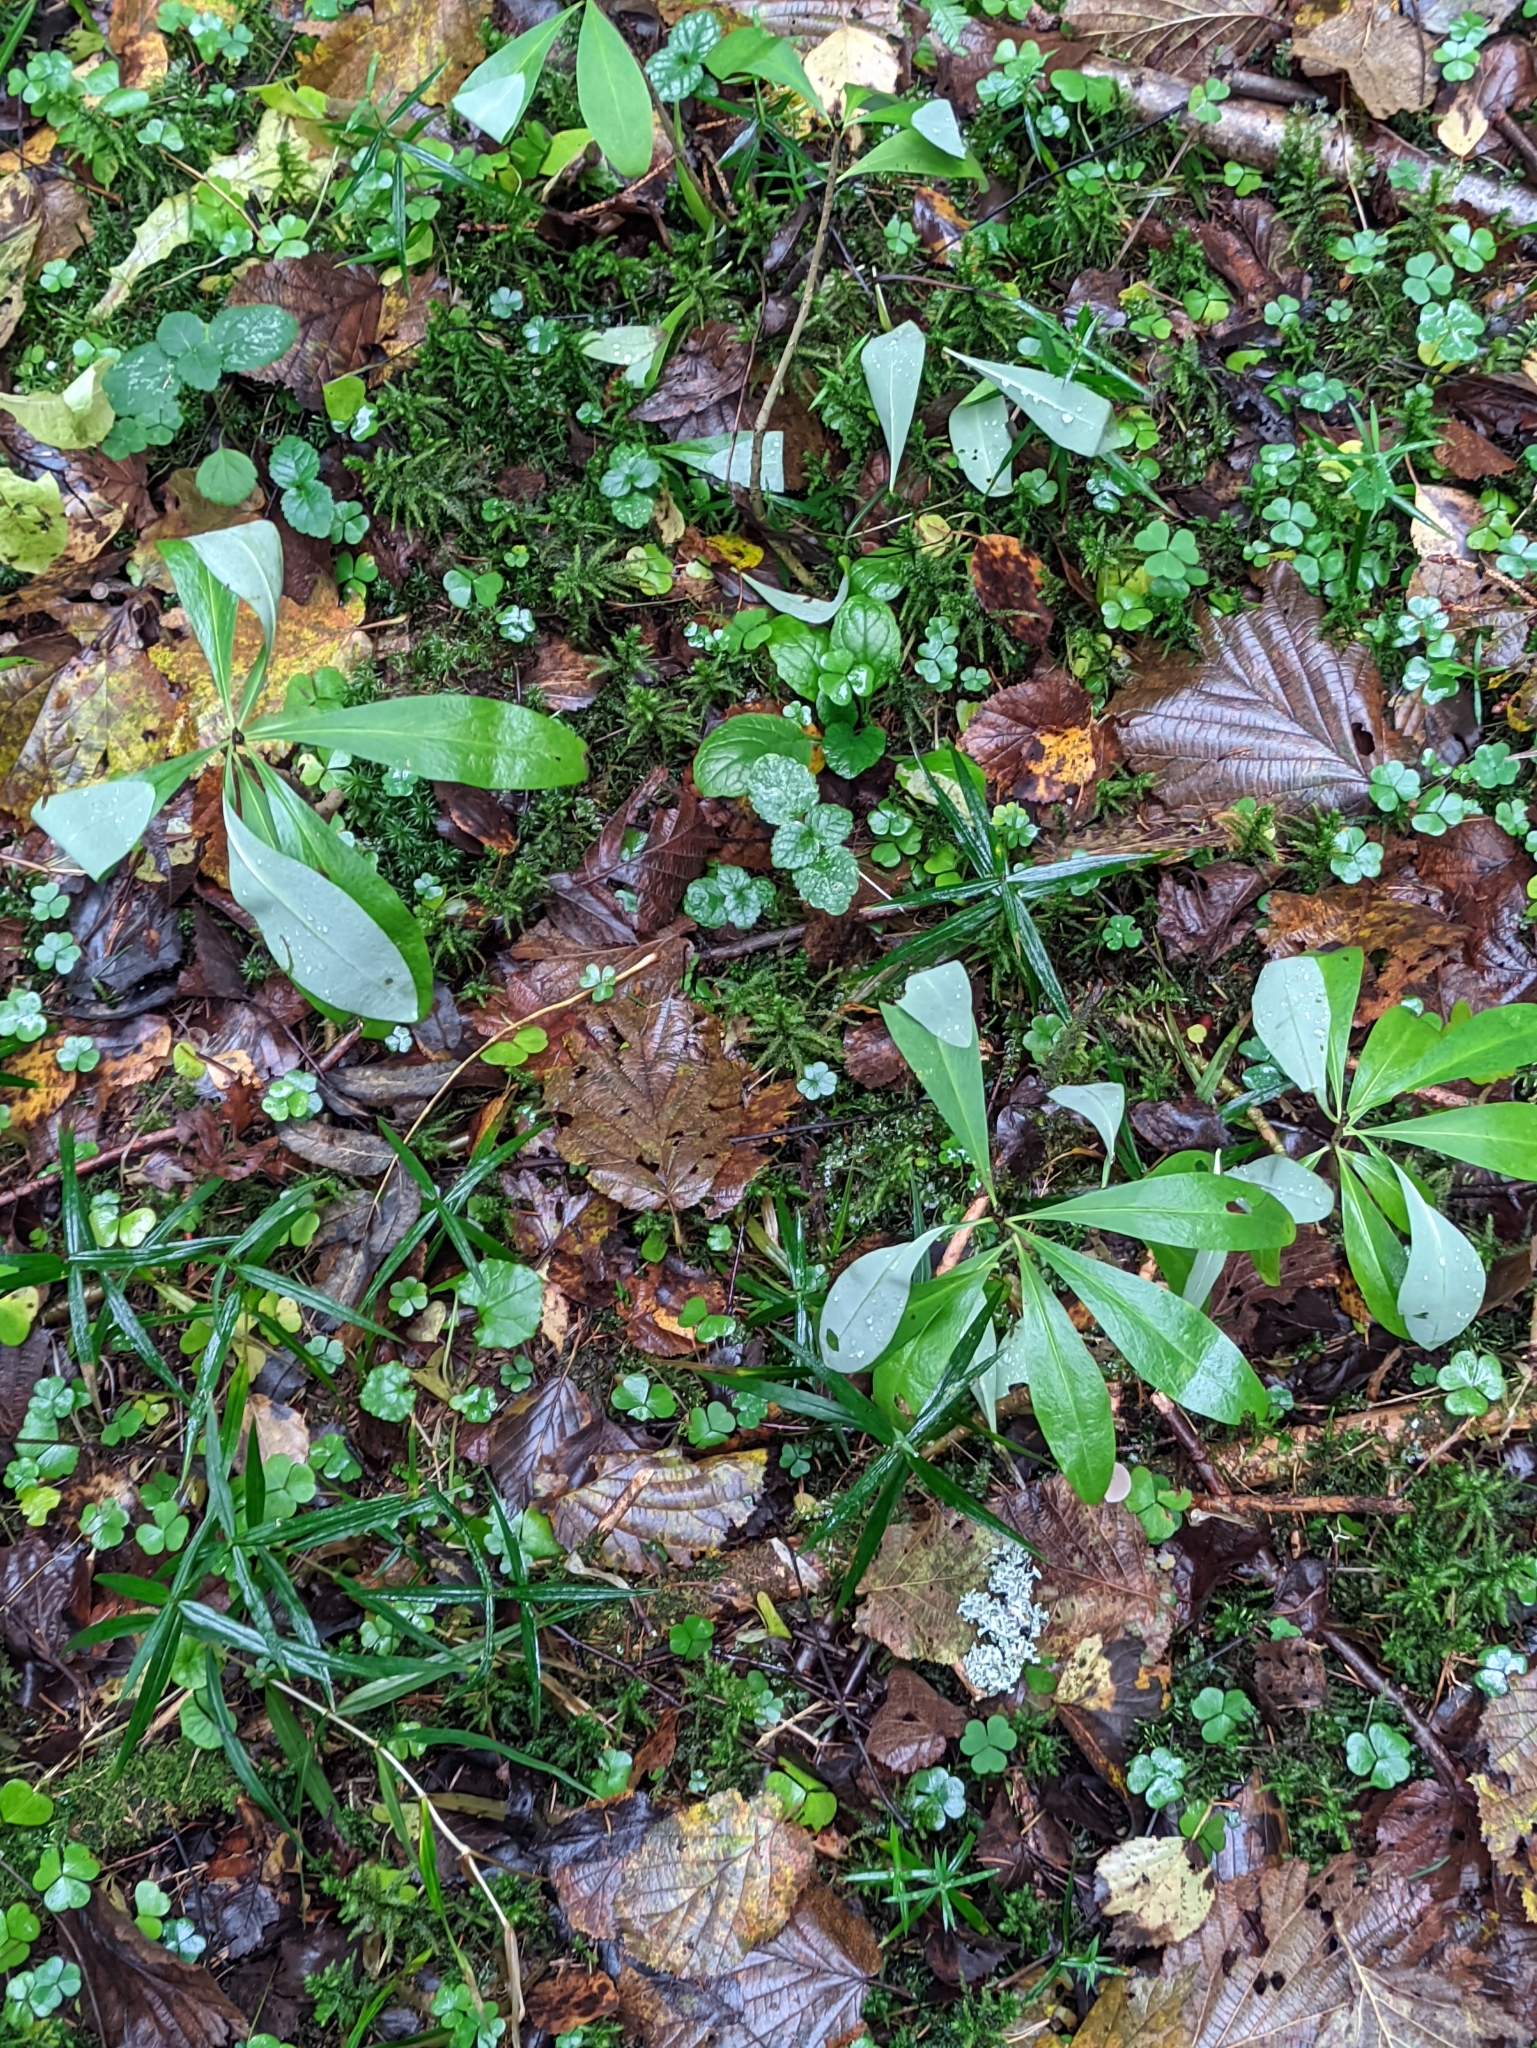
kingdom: Plantae
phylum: Tracheophyta
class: Magnoliopsida
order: Malvales
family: Thymelaeaceae
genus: Daphne
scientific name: Daphne mezereum
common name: Mezereon
